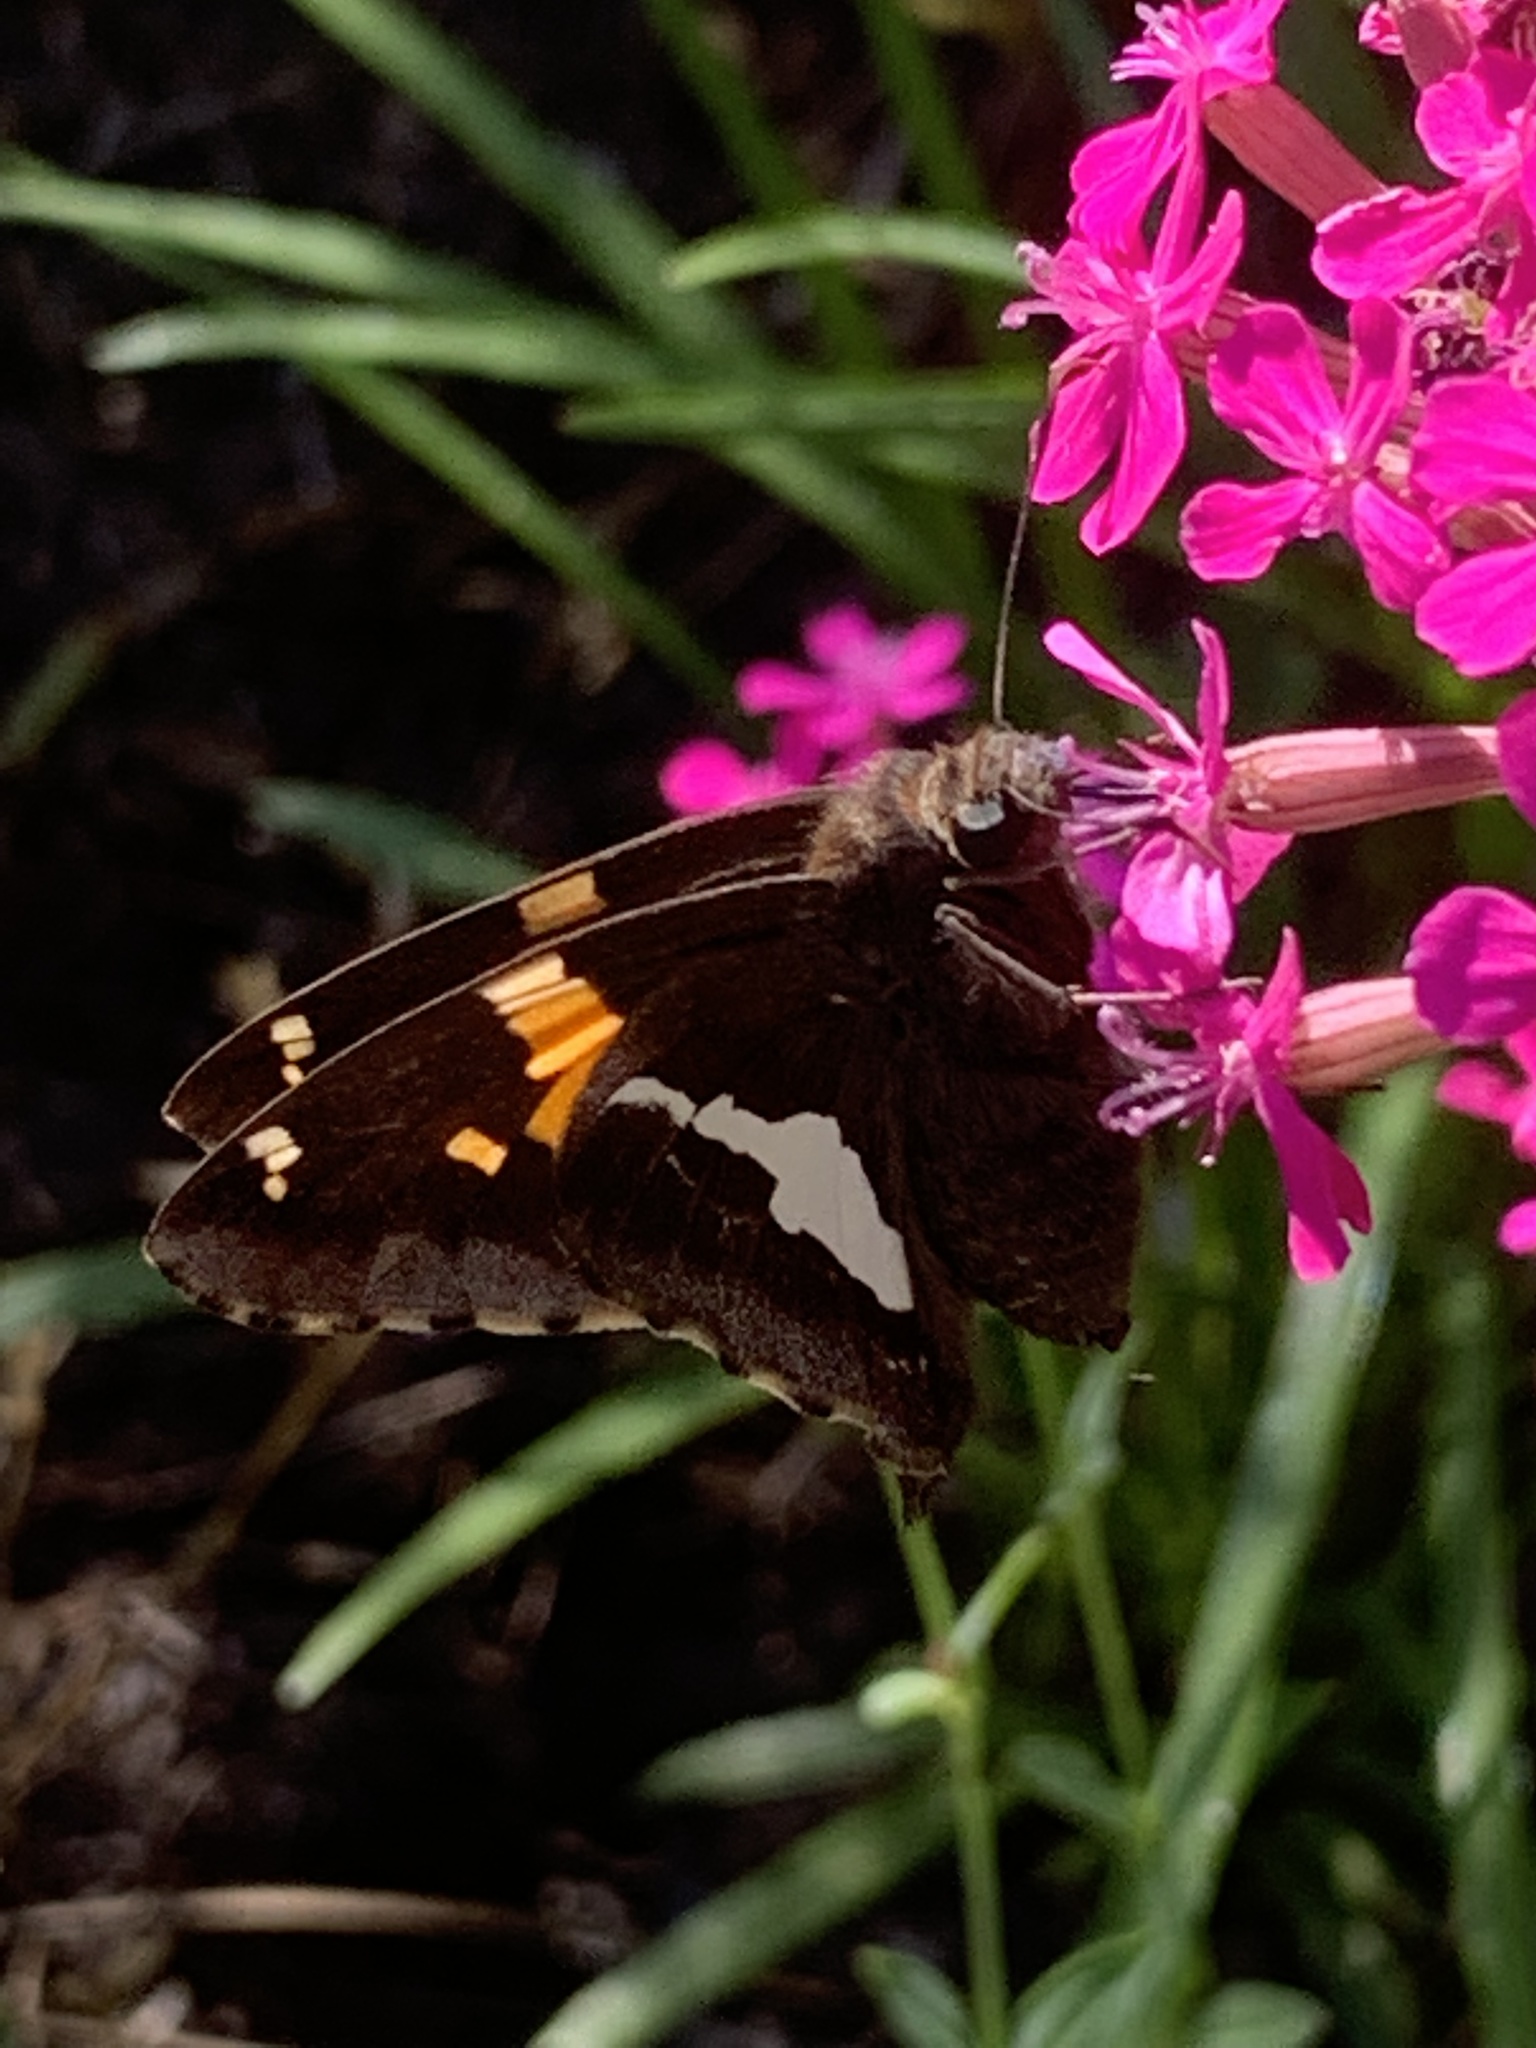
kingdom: Animalia
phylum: Arthropoda
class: Insecta
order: Lepidoptera
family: Hesperiidae
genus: Epargyreus
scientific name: Epargyreus clarus
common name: Silver-spotted skipper
